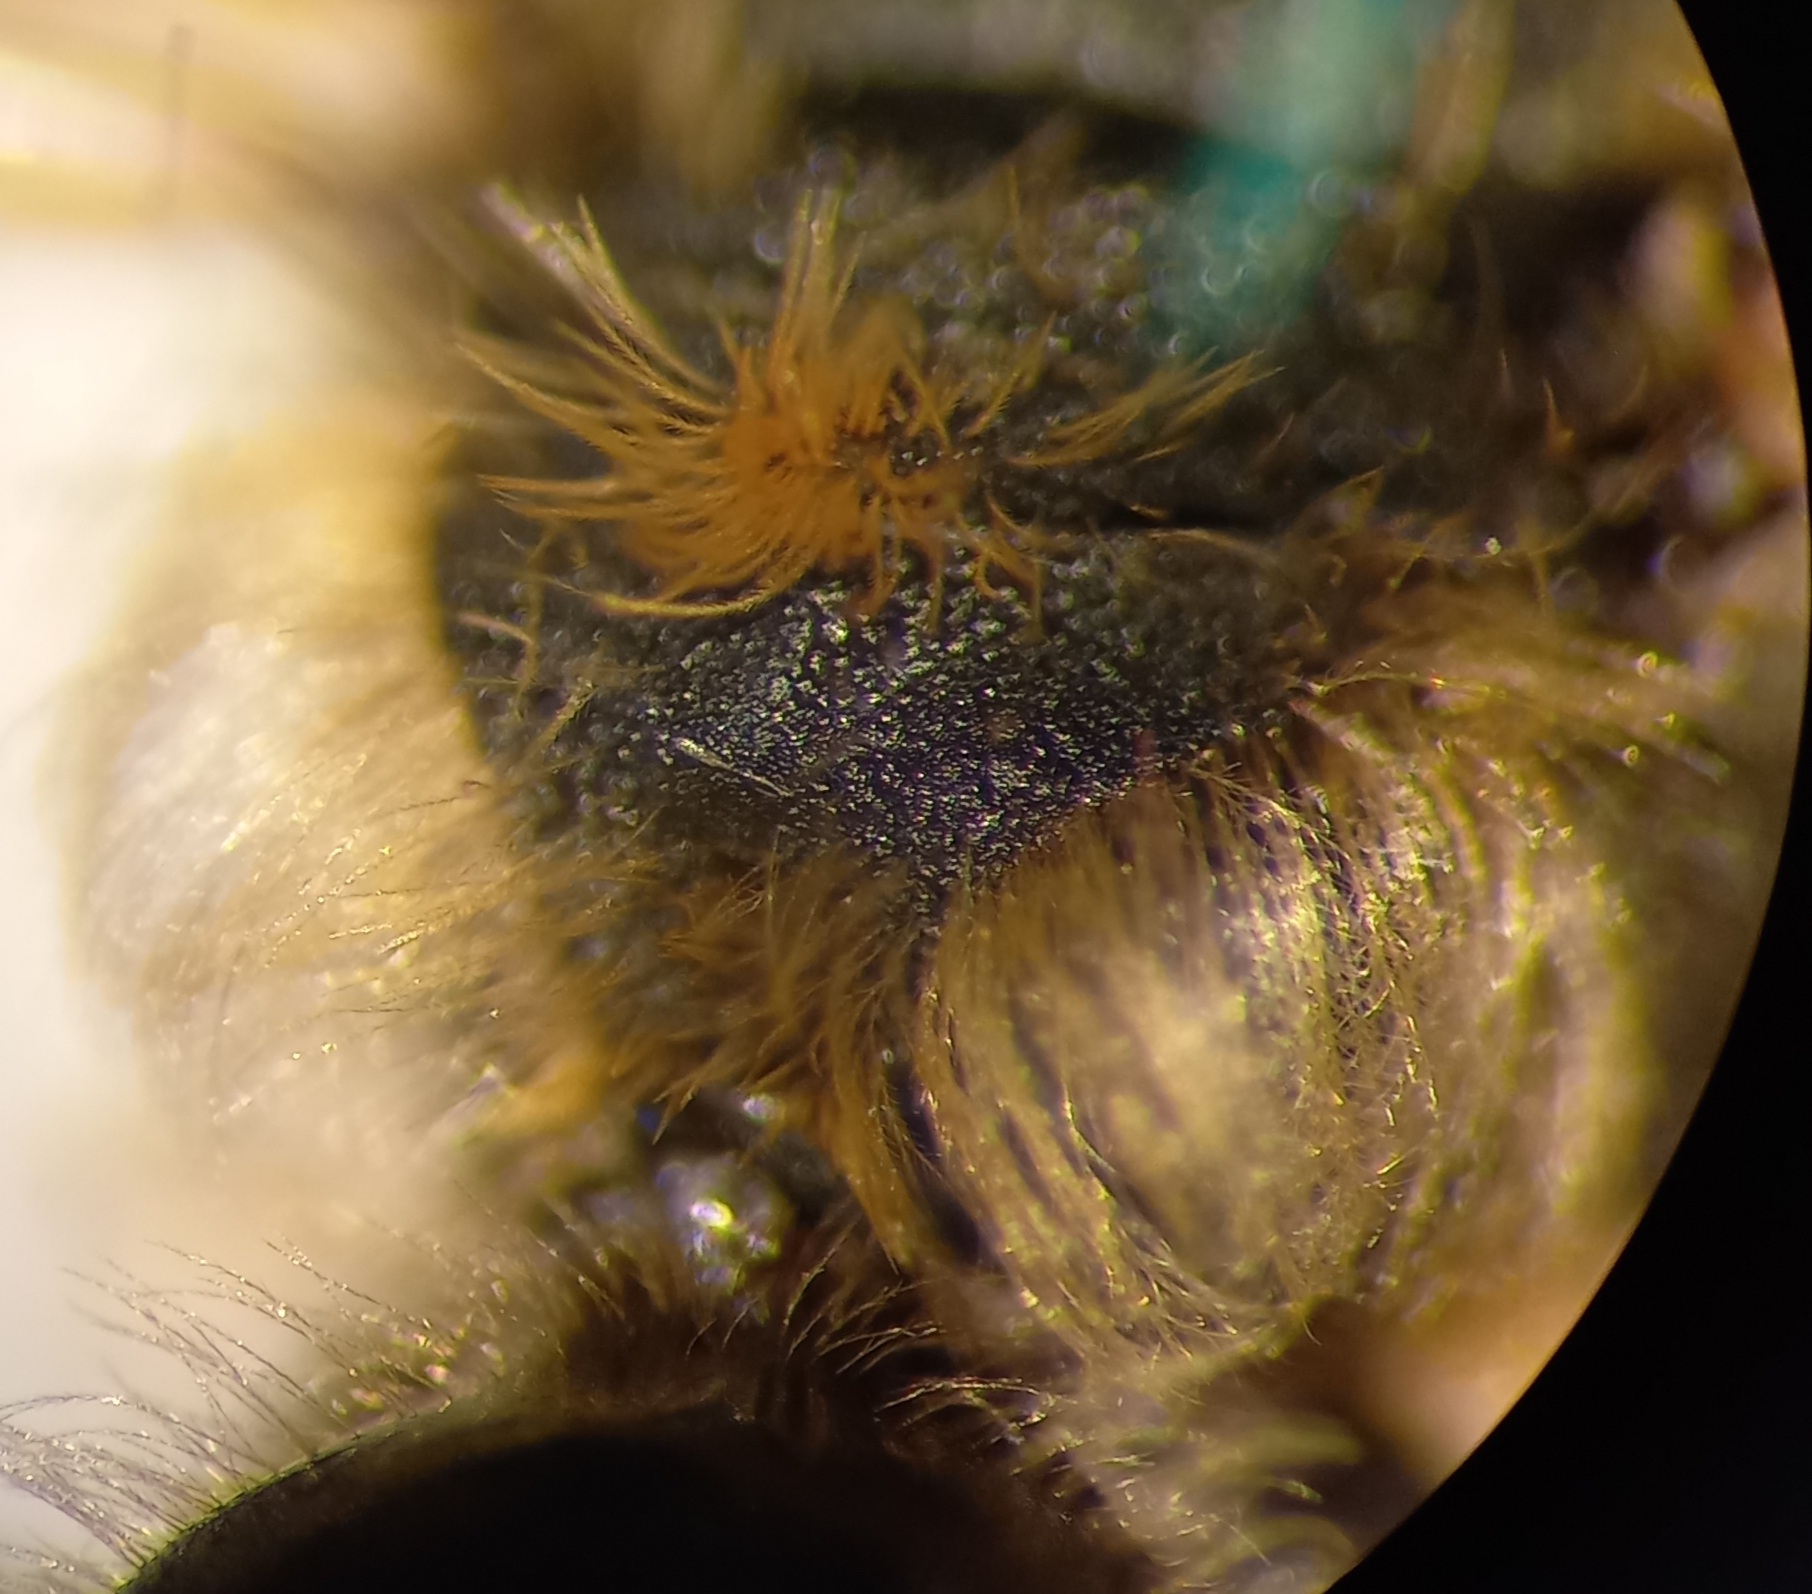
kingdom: Animalia
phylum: Arthropoda
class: Insecta
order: Hymenoptera
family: Andrenidae
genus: Andrena
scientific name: Andrena dorsata
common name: Short-fringed mining bee
